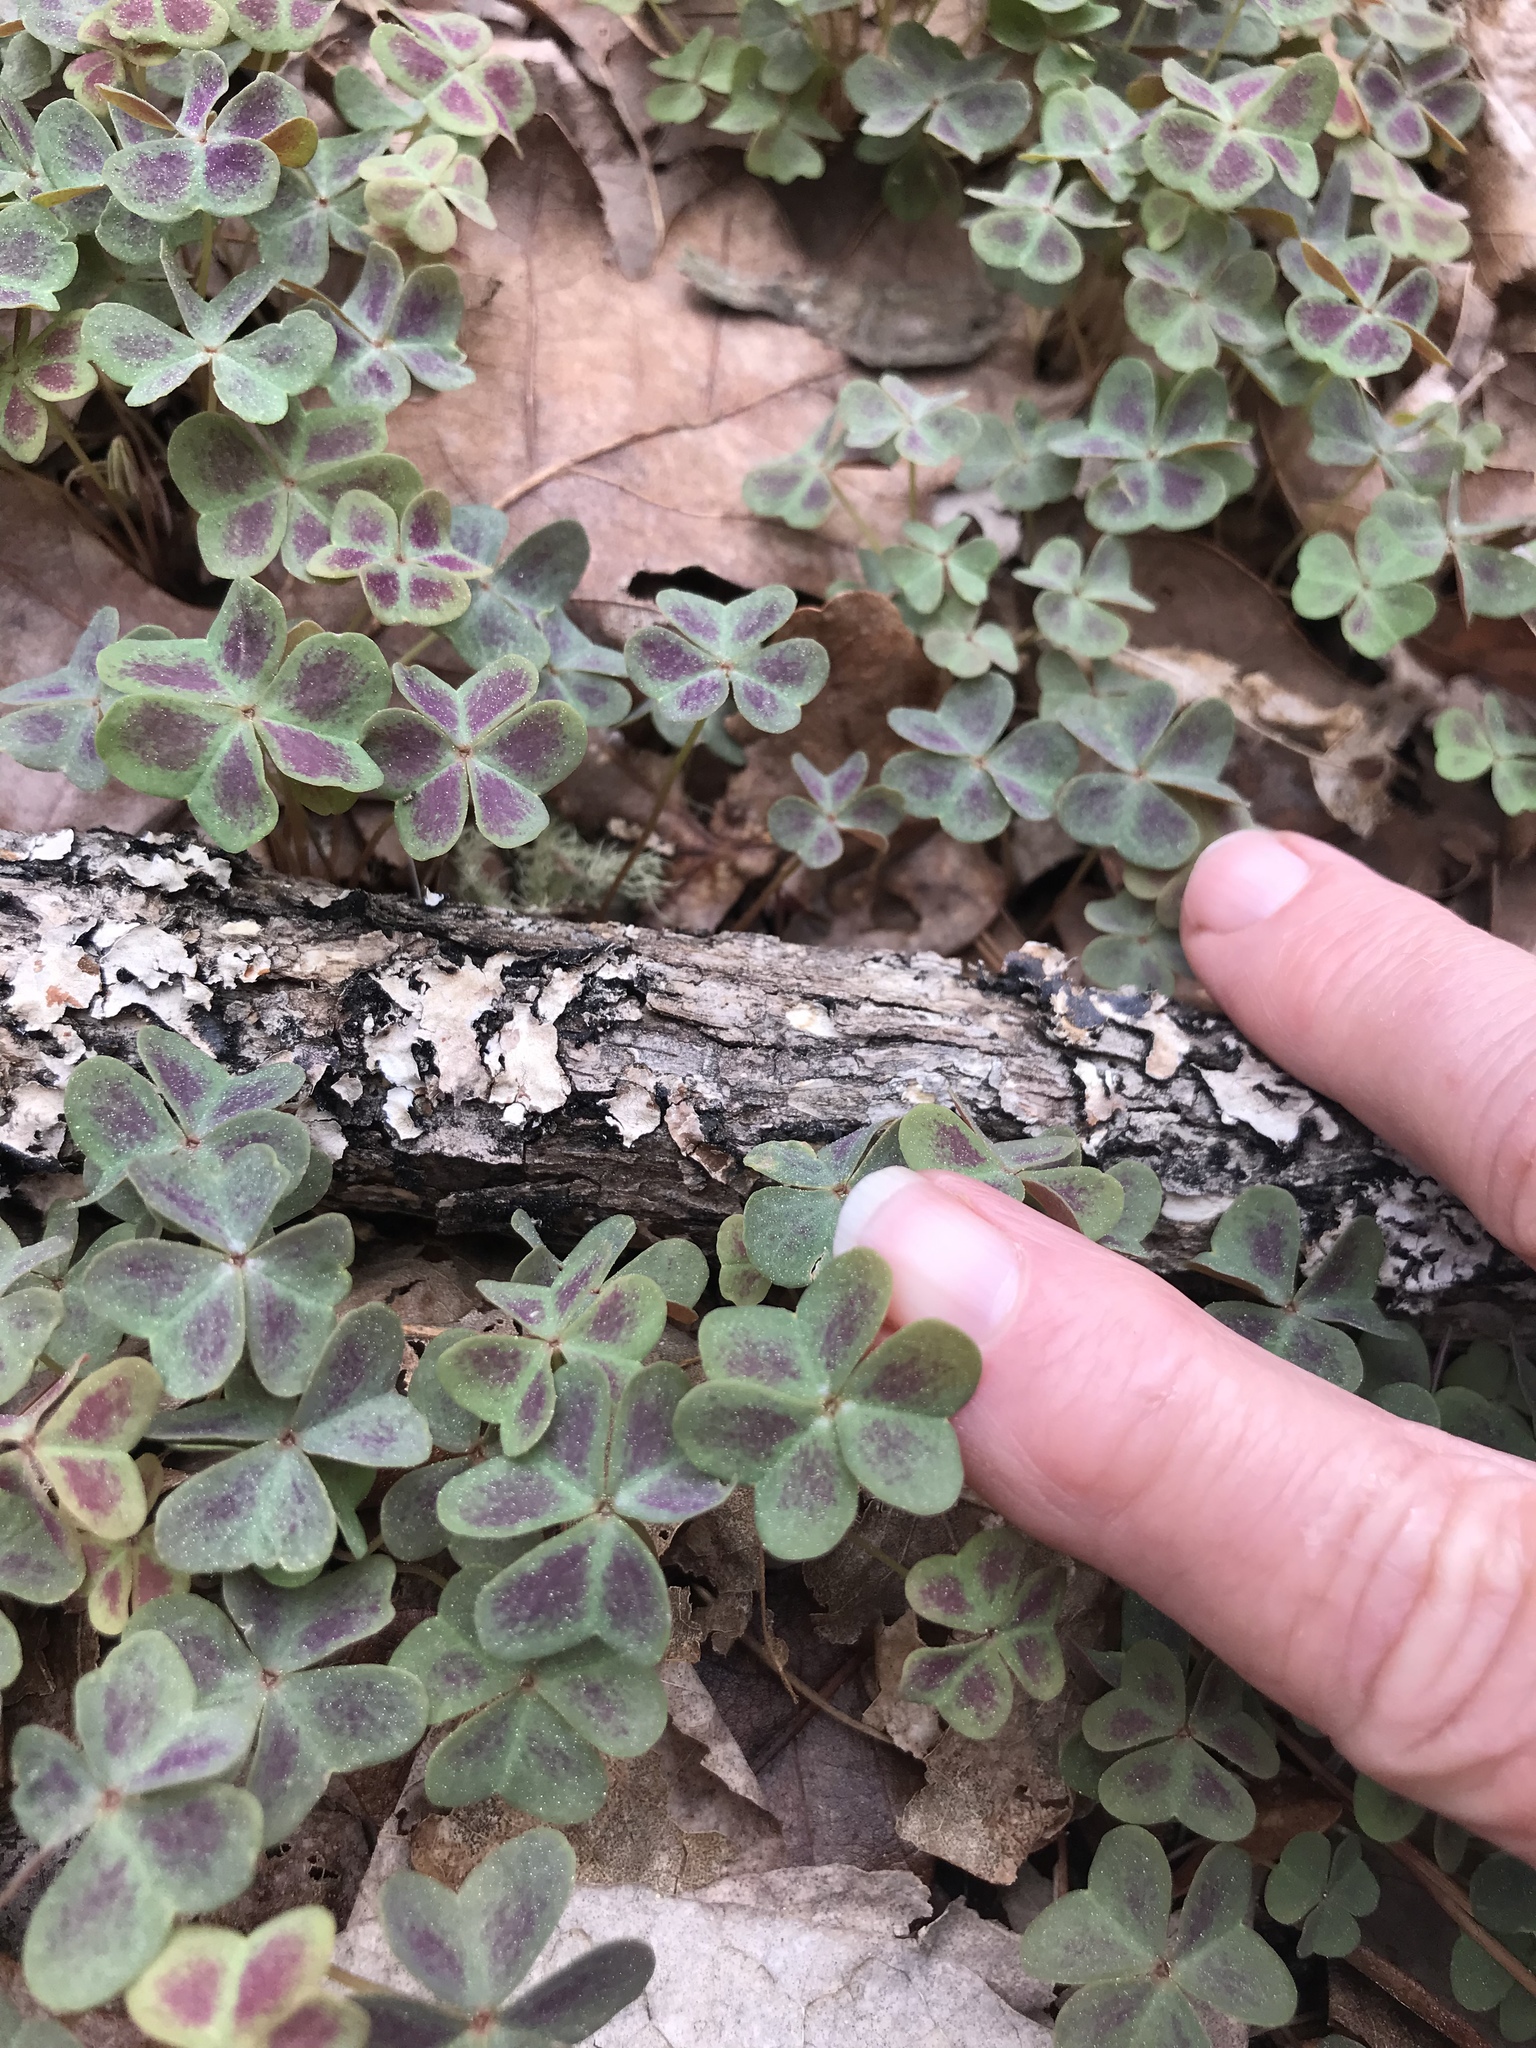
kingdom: Plantae
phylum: Tracheophyta
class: Magnoliopsida
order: Oxalidales
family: Oxalidaceae
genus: Oxalis
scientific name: Oxalis violacea
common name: Violet wood-sorrel
